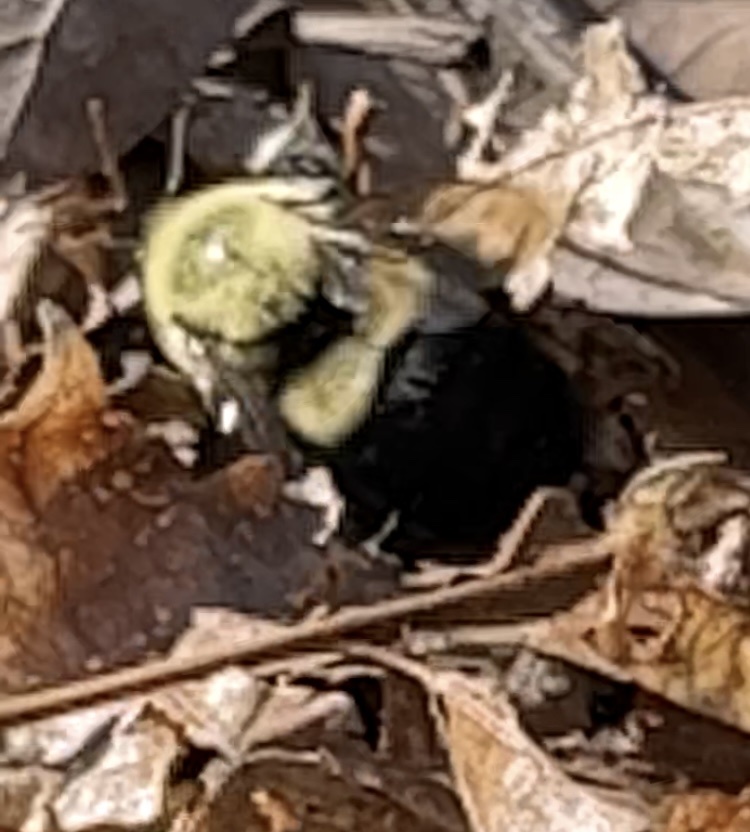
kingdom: Animalia
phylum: Arthropoda
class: Insecta
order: Hymenoptera
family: Apidae
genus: Bombus
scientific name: Bombus impatiens
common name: Common eastern bumble bee
